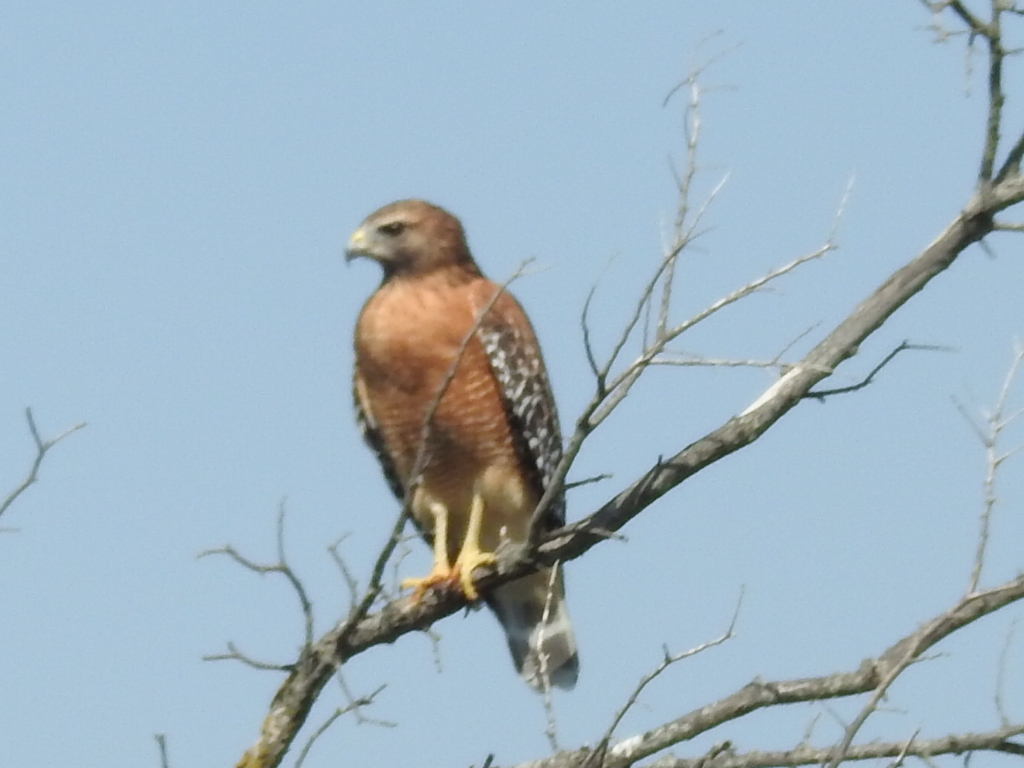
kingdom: Animalia
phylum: Chordata
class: Aves
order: Accipitriformes
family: Accipitridae
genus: Buteo
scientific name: Buteo lineatus
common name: Red-shouldered hawk
